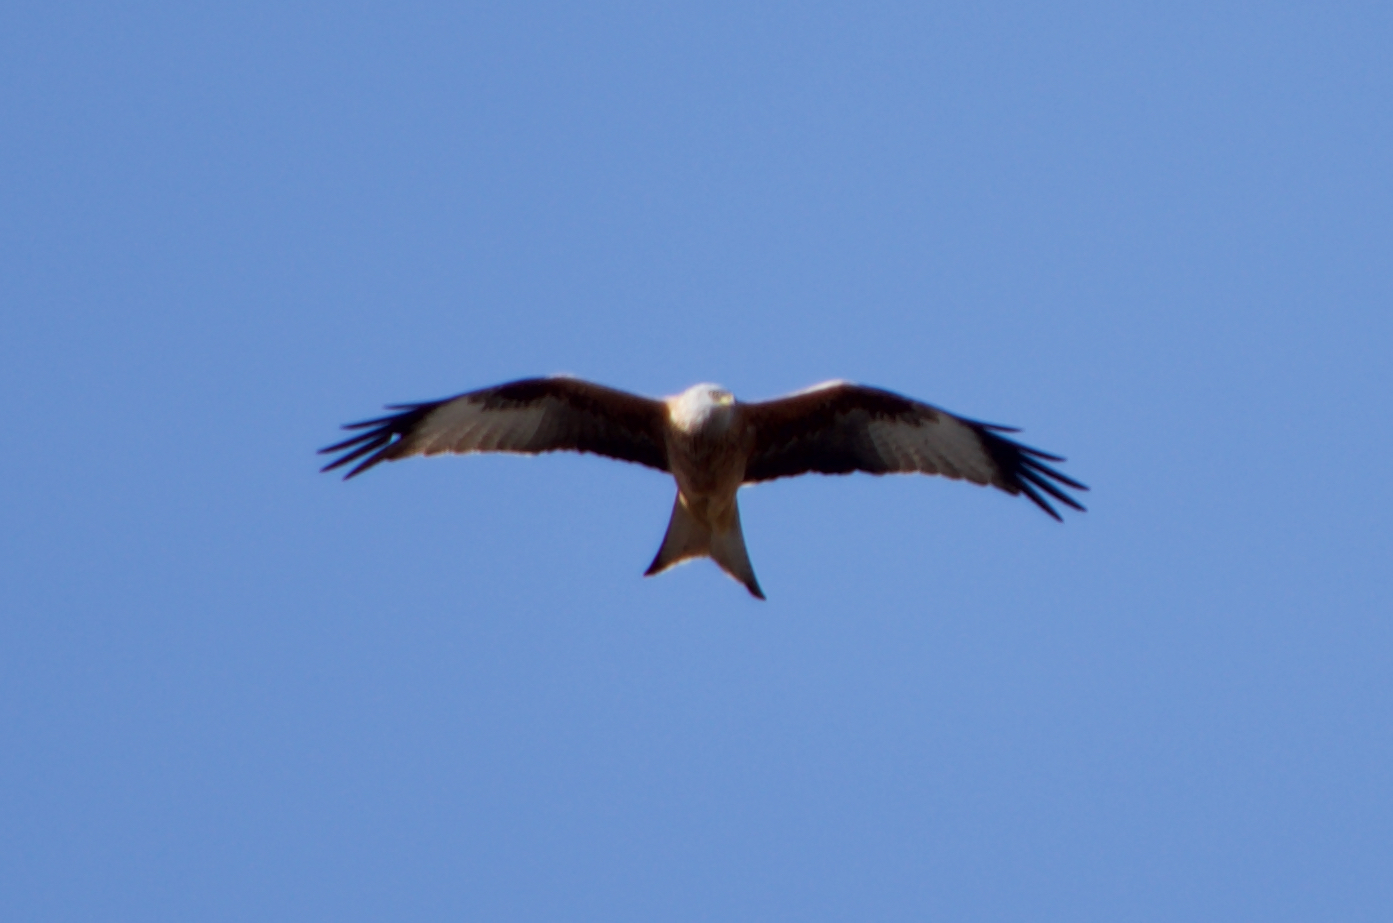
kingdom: Animalia
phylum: Chordata
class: Aves
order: Accipitriformes
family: Accipitridae
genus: Milvus
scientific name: Milvus milvus
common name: Red kite
